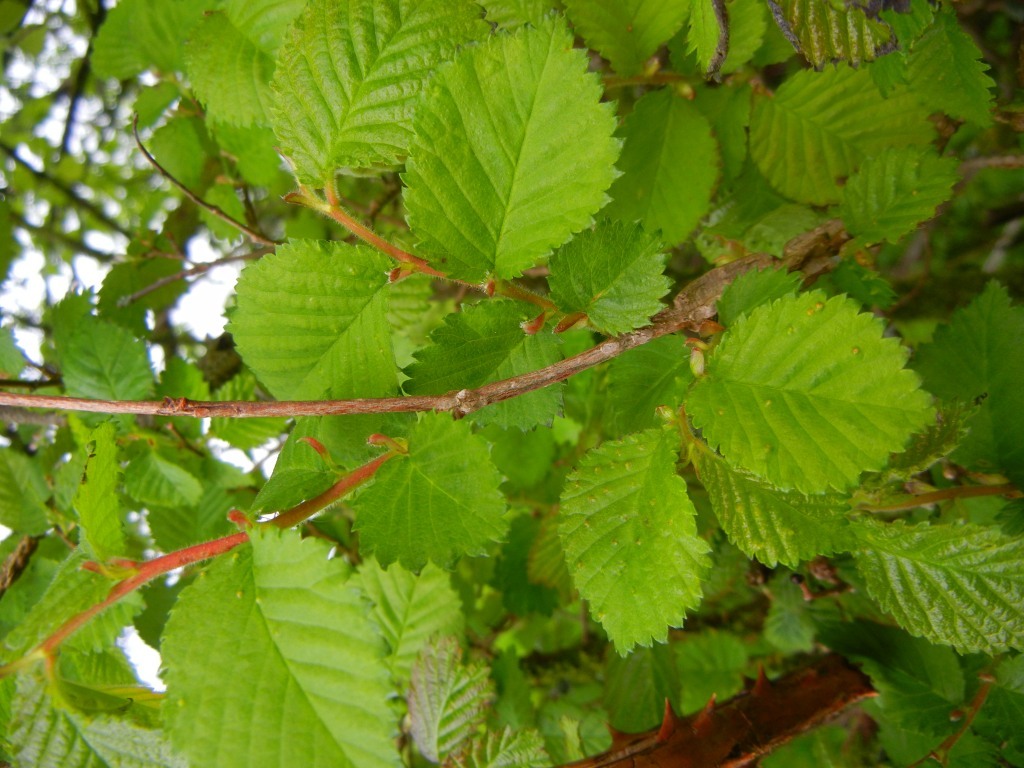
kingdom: Plantae
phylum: Tracheophyta
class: Magnoliopsida
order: Rosales
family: Ulmaceae
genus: Ulmus
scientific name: Ulmus minor
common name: Small-leaved elm
